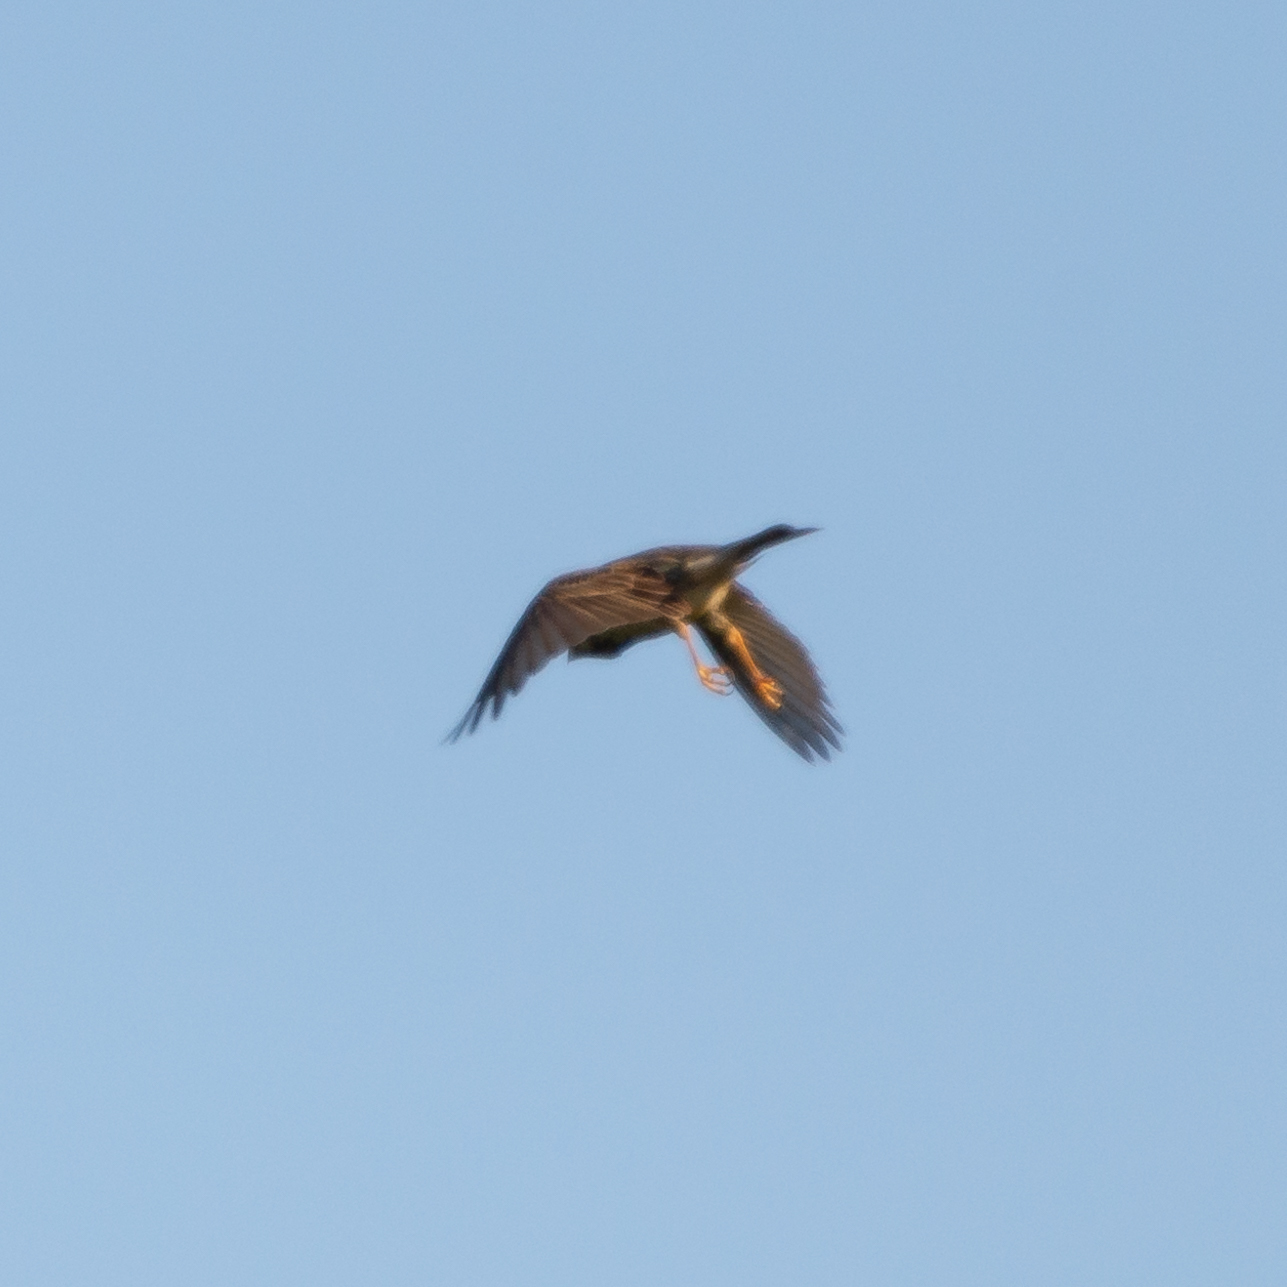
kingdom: Animalia
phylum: Chordata
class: Aves
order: Passeriformes
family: Emberizidae
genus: Emberiza
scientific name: Emberiza calandra
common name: Corn bunting
